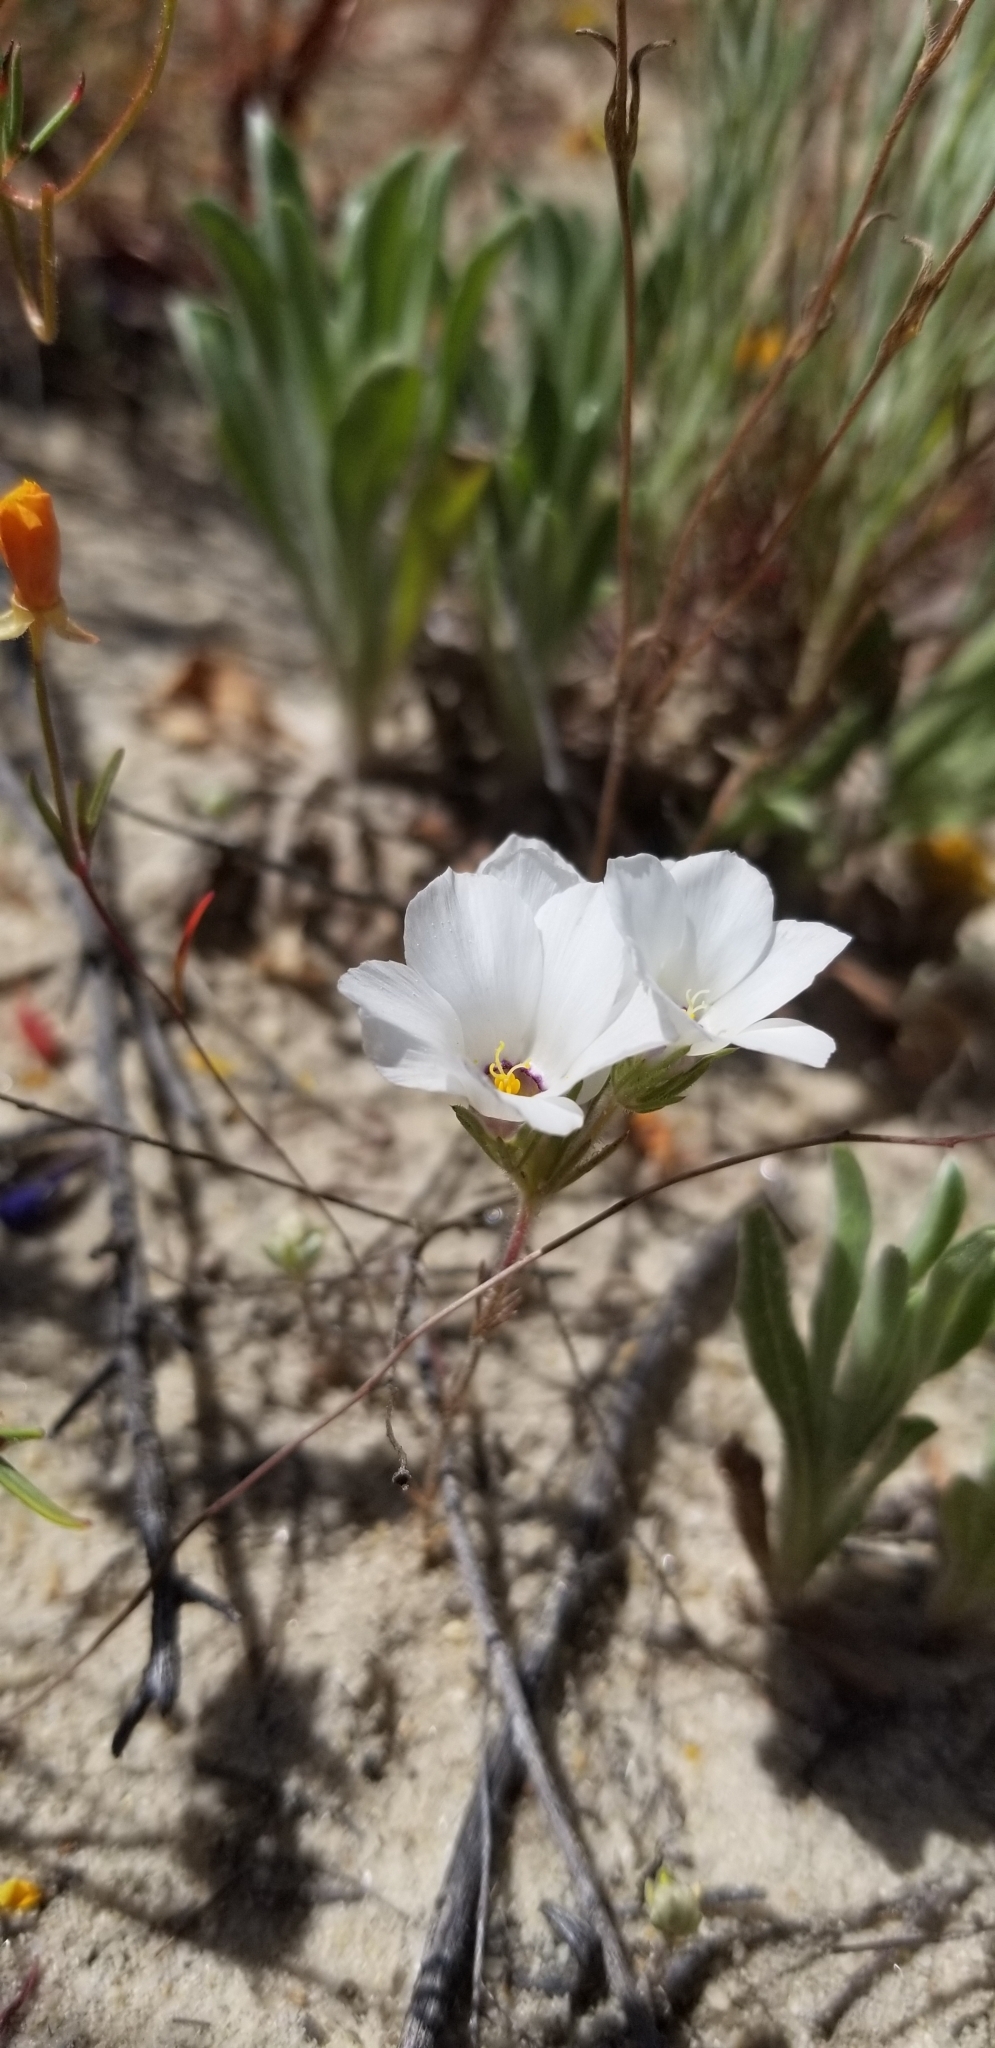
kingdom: Plantae
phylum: Tracheophyta
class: Magnoliopsida
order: Ericales
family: Polemoniaceae
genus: Linanthus
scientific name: Linanthus parryae
